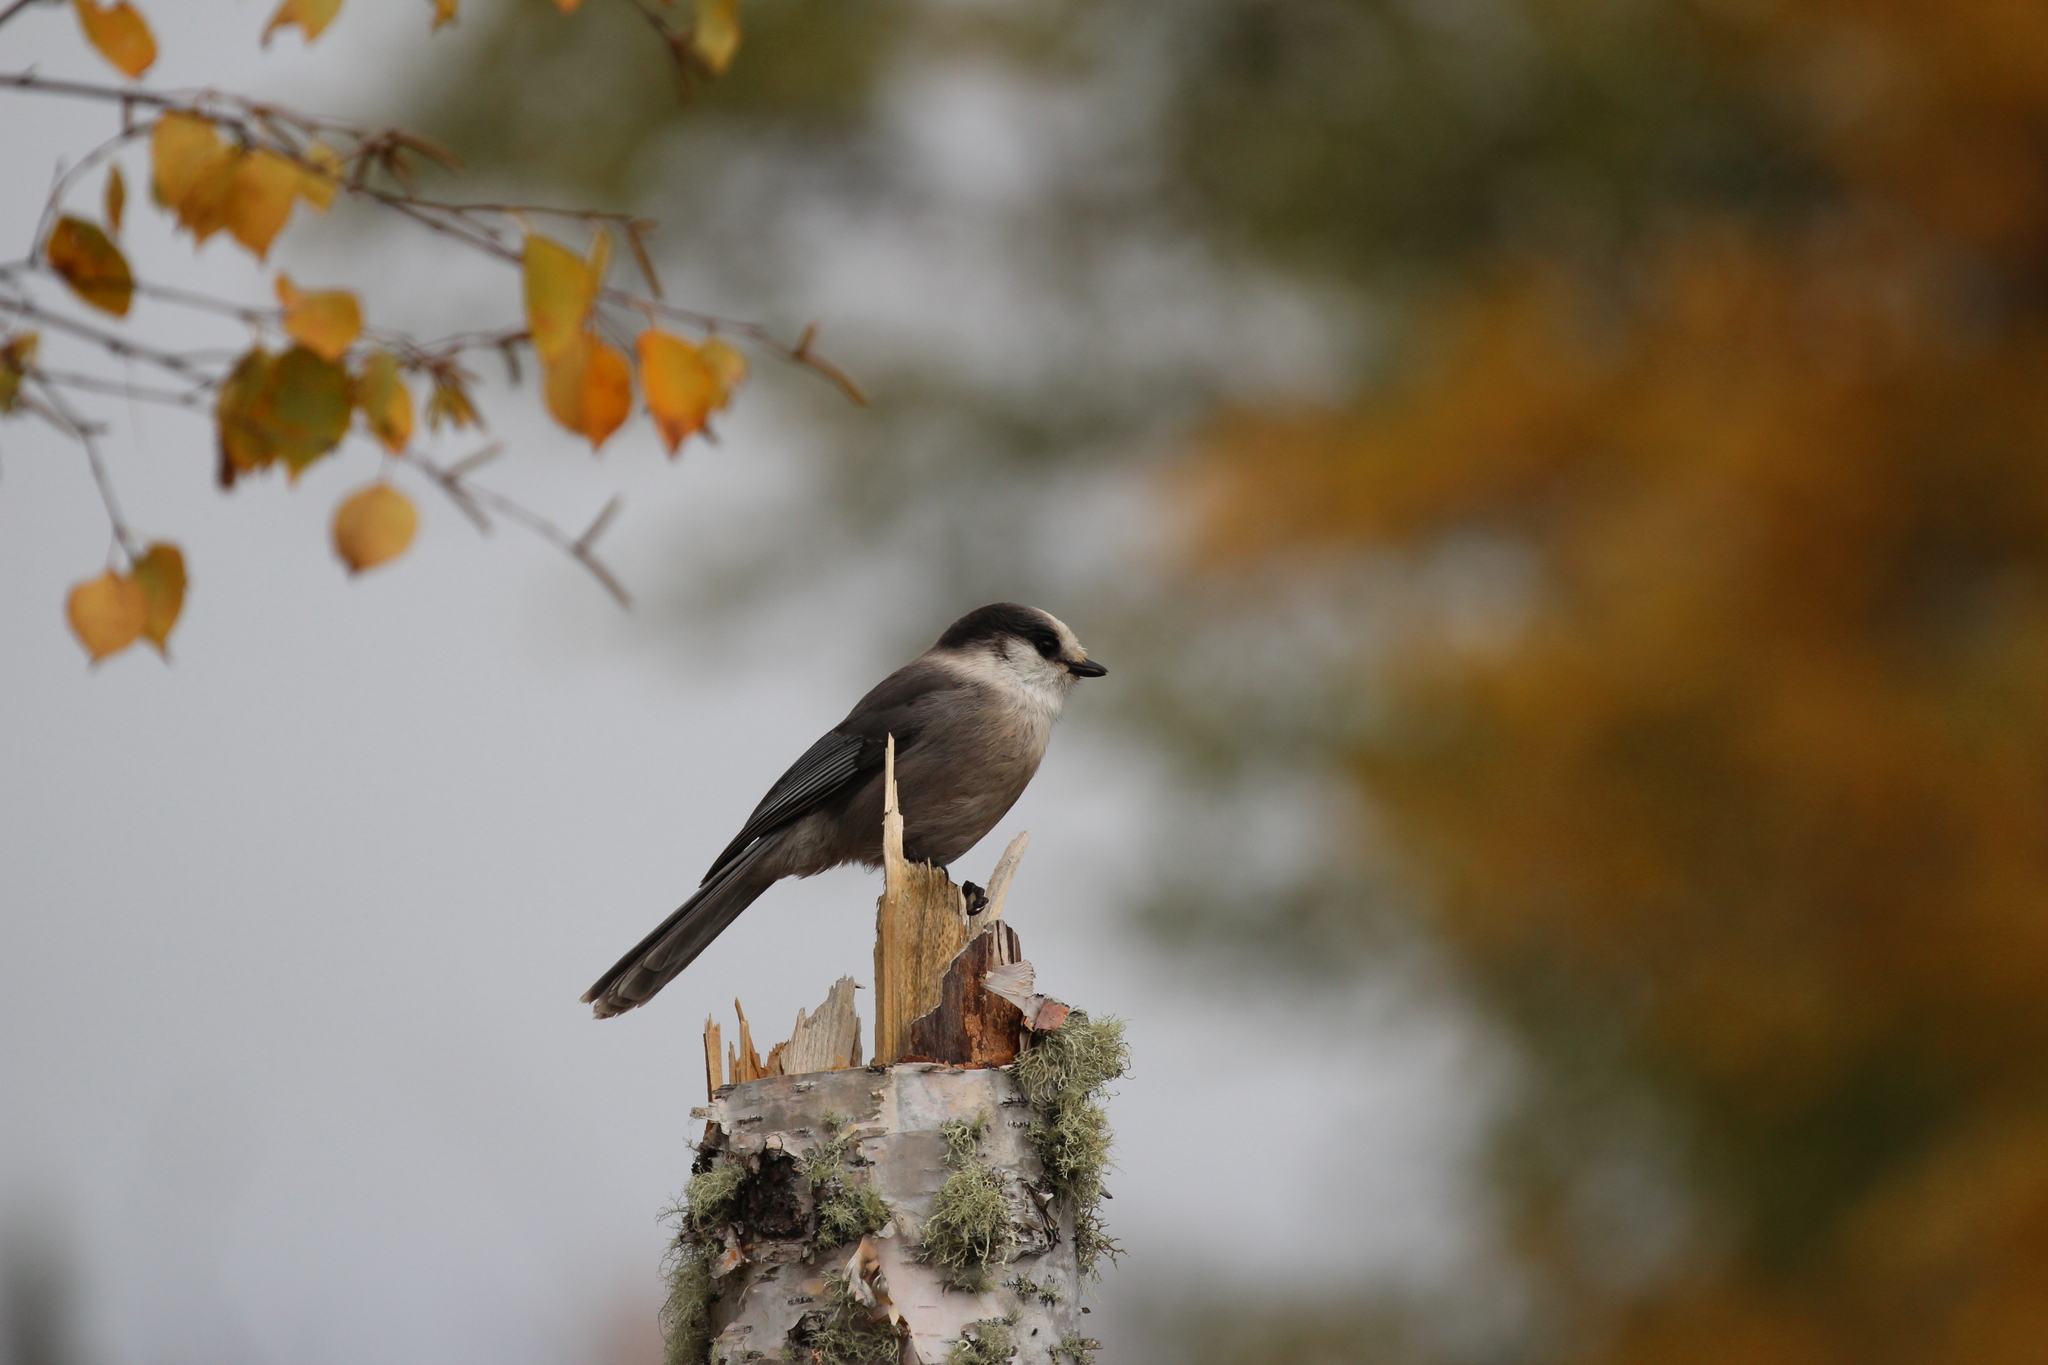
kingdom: Animalia
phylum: Chordata
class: Aves
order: Passeriformes
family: Corvidae
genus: Perisoreus
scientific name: Perisoreus canadensis
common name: Gray jay
